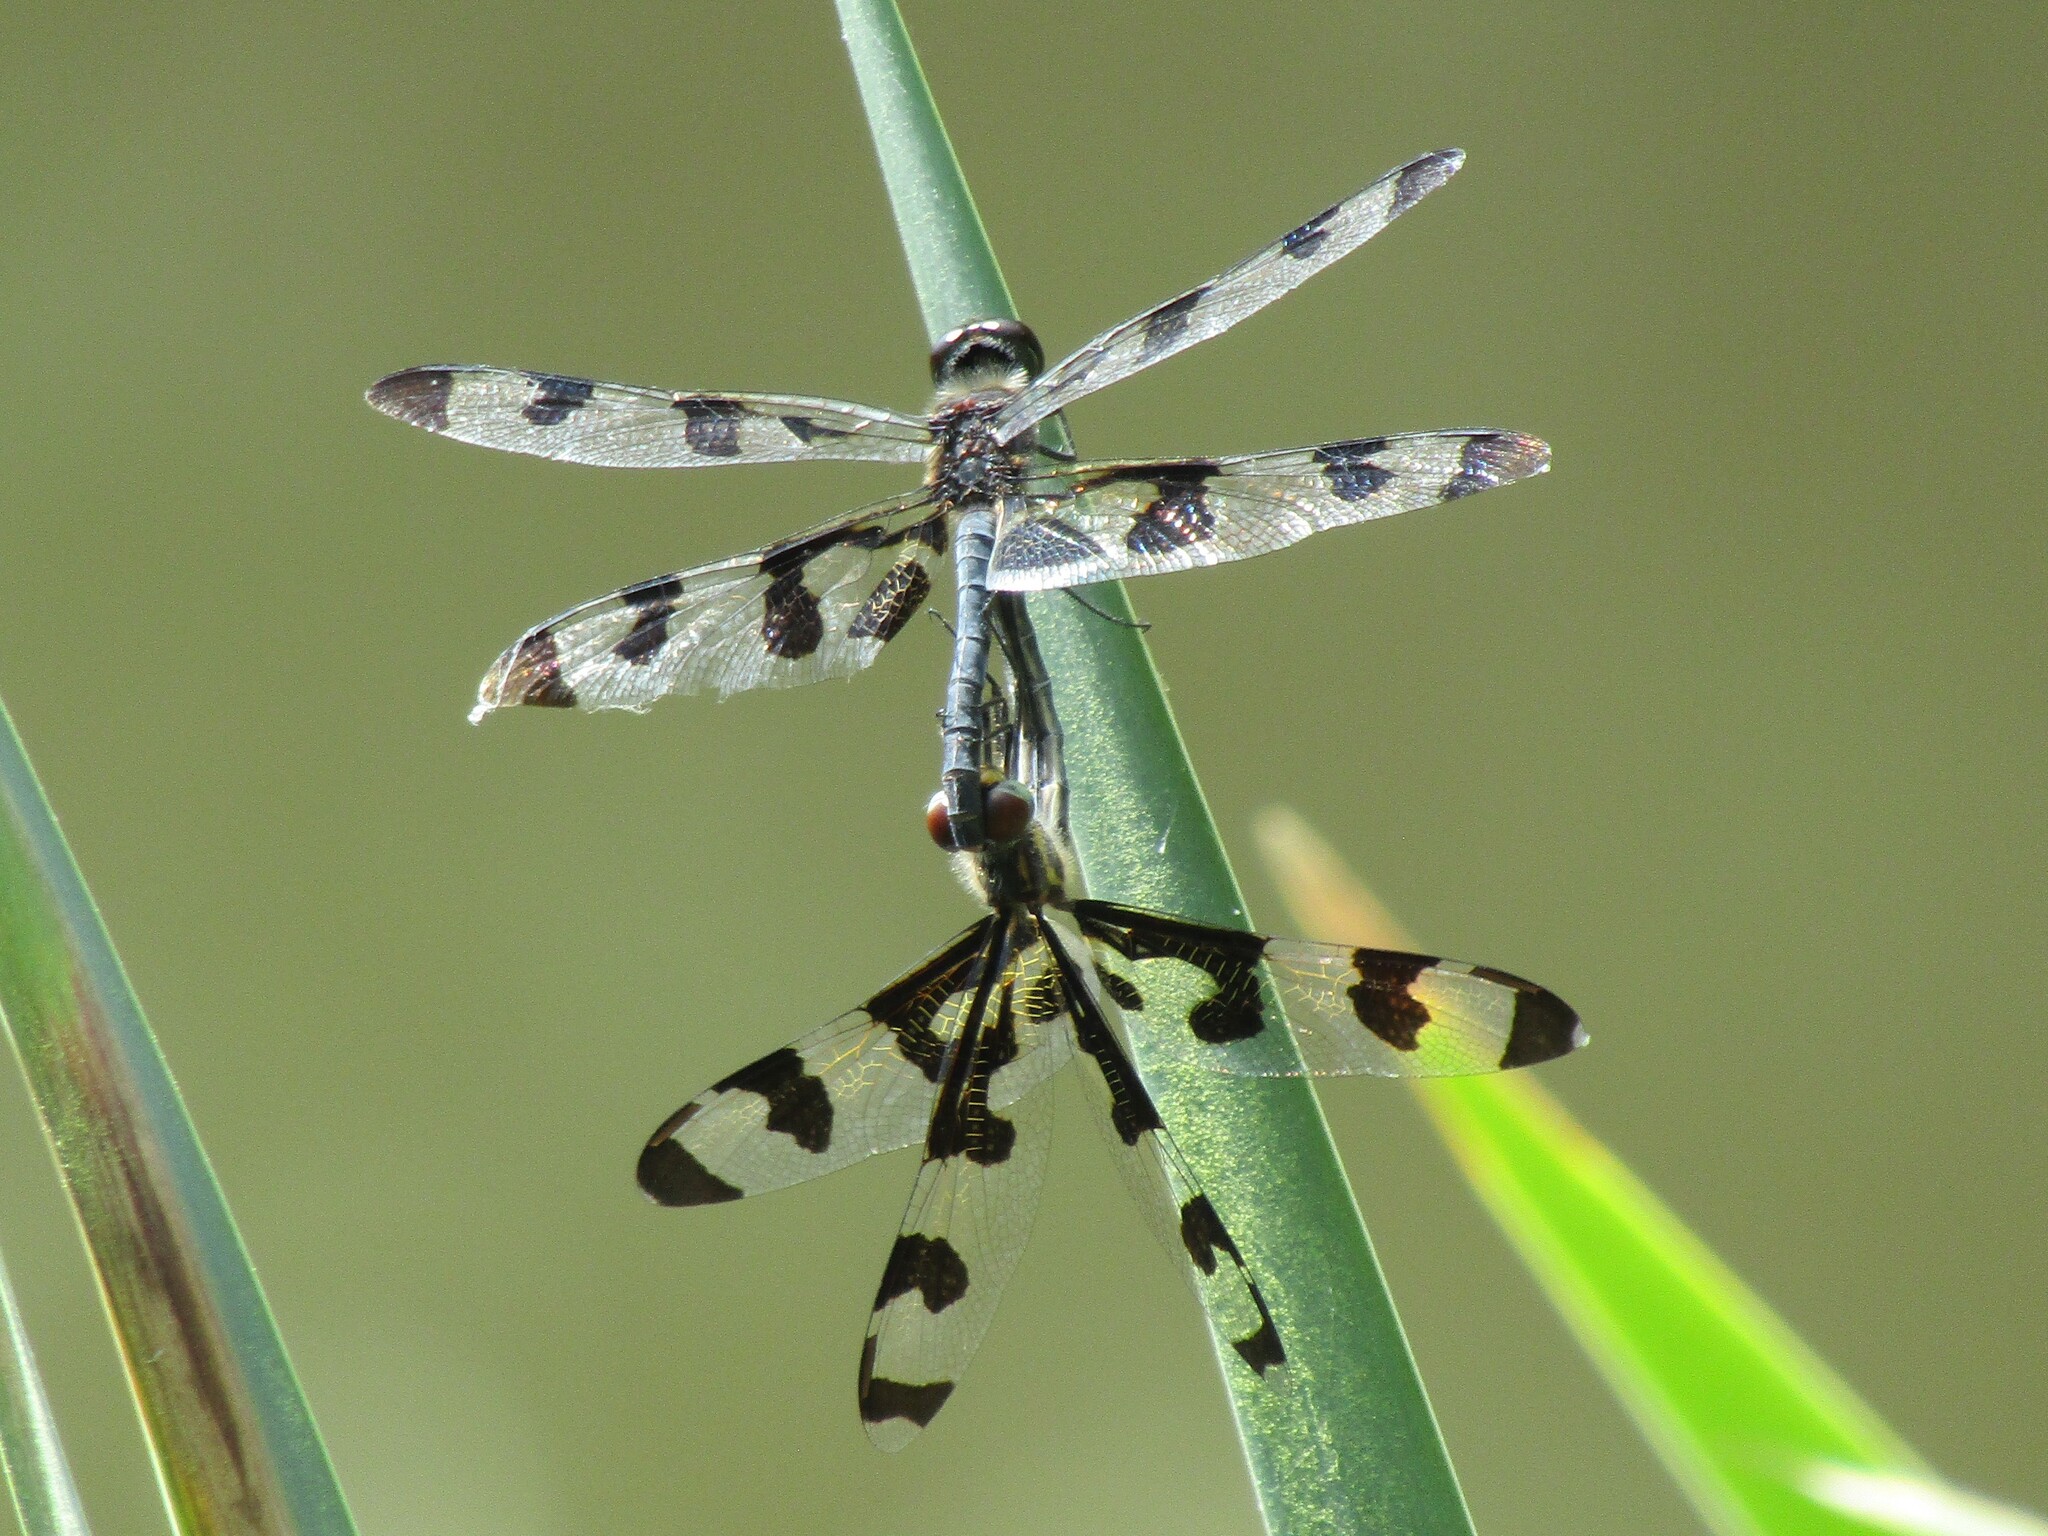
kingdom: Animalia
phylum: Arthropoda
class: Insecta
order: Odonata
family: Libellulidae
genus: Celithemis
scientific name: Celithemis fasciata
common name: Banded pennant
